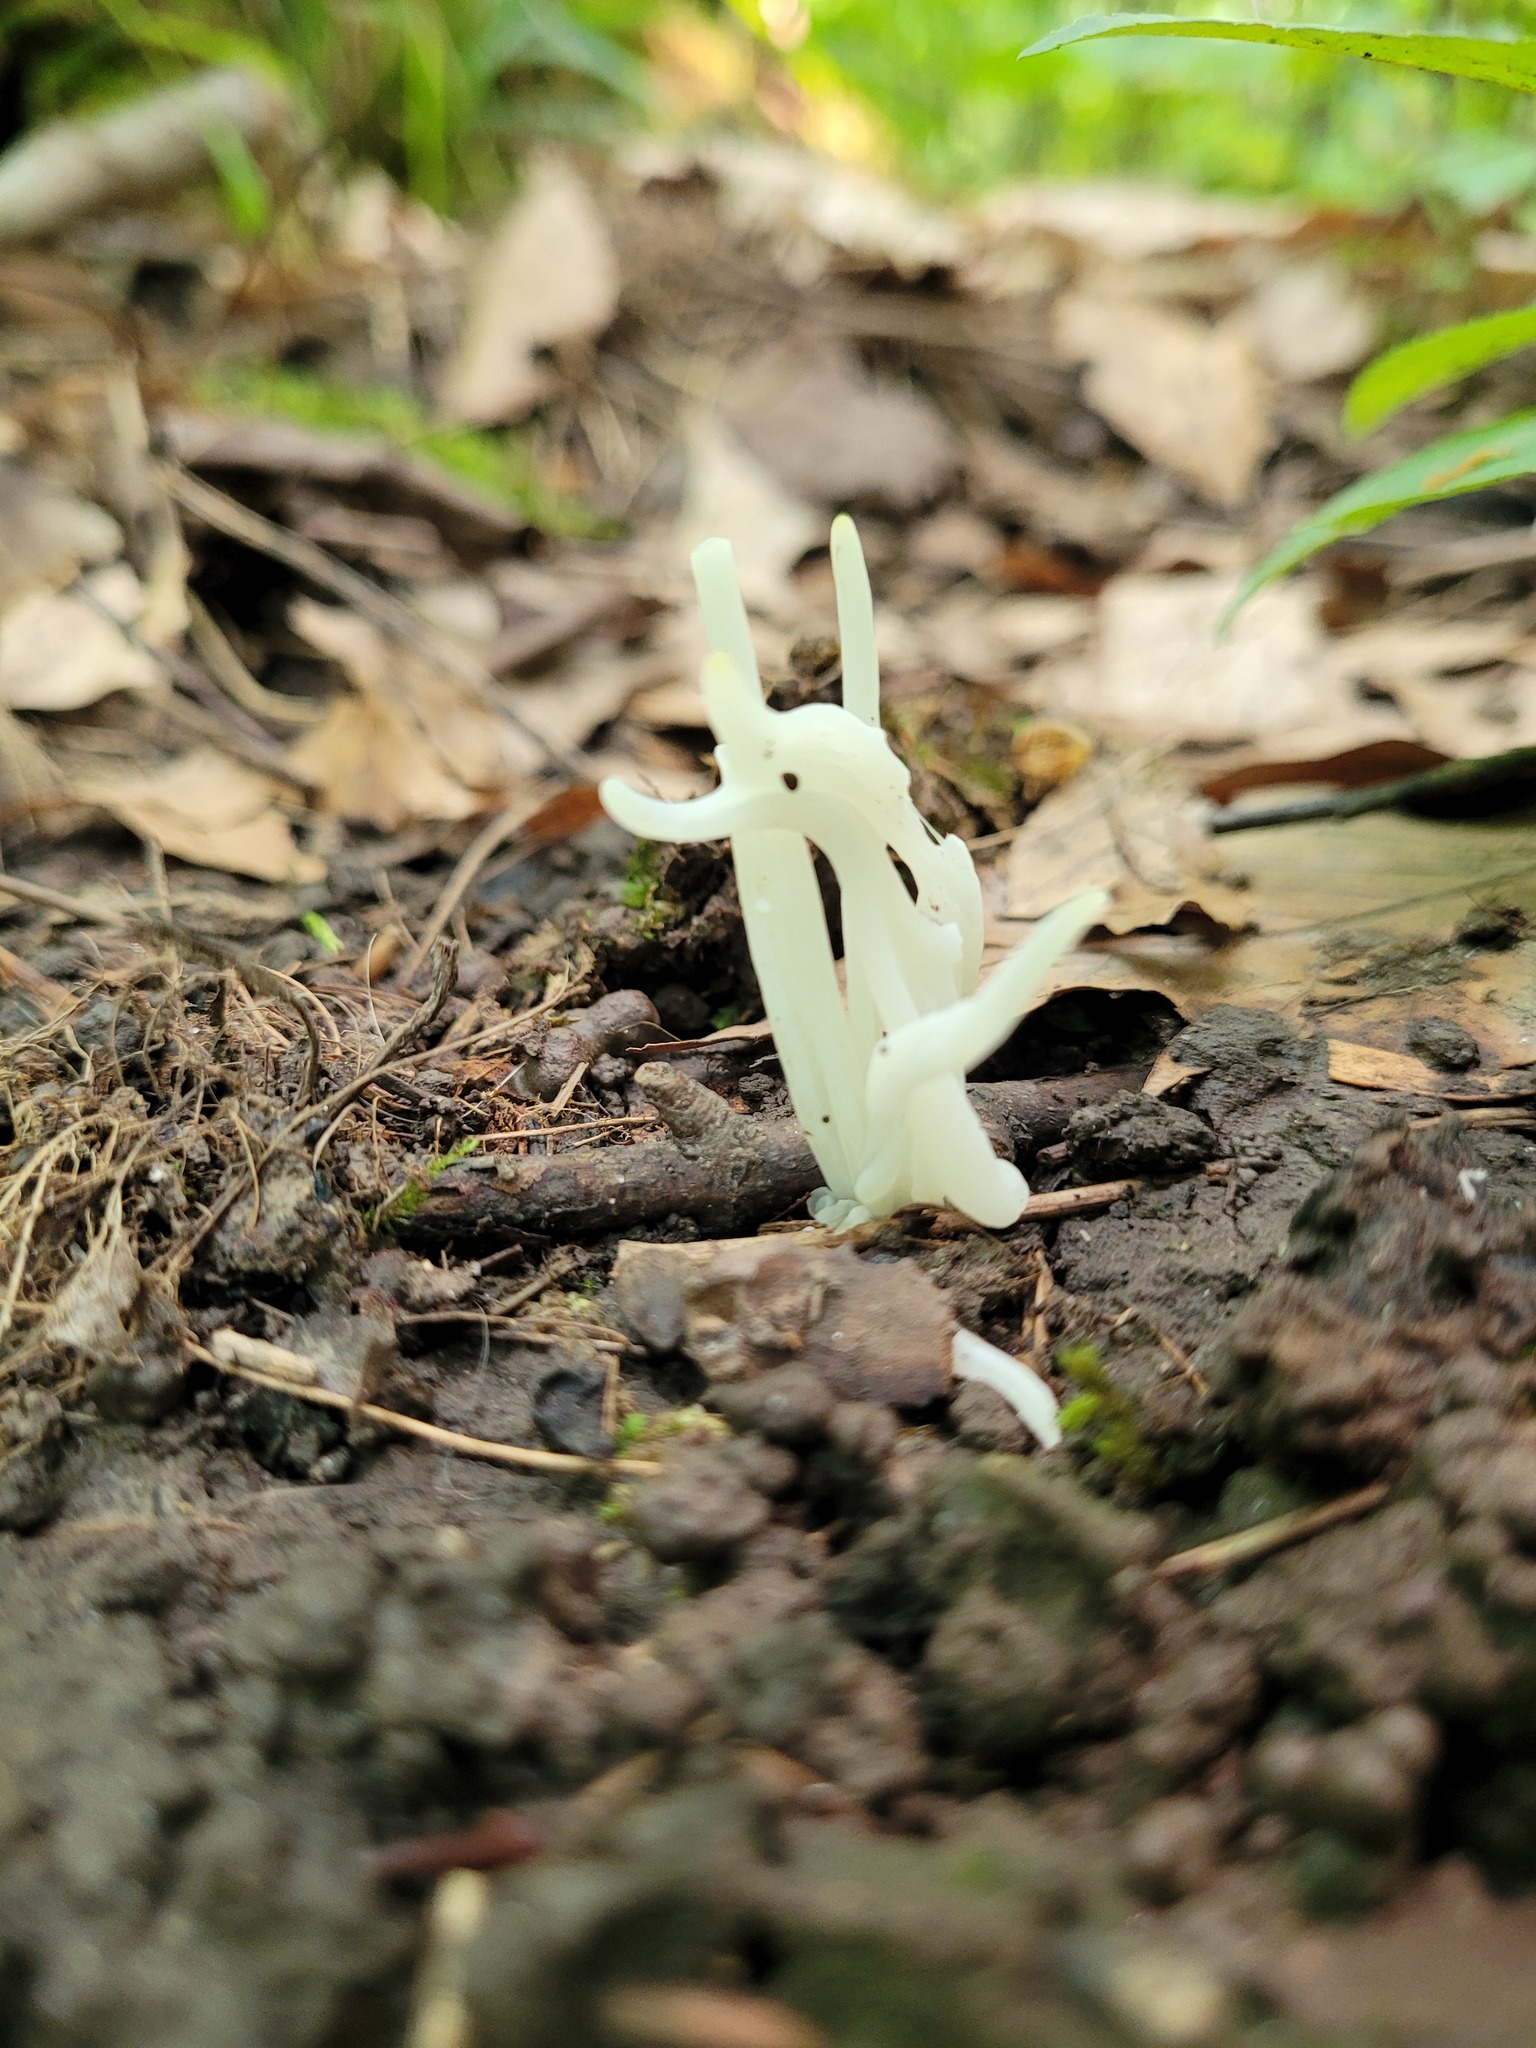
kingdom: Fungi
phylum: Basidiomycota
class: Agaricomycetes
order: Agaricales
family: Clavariaceae
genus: Clavaria
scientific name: Clavaria fragilis
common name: White spindles
